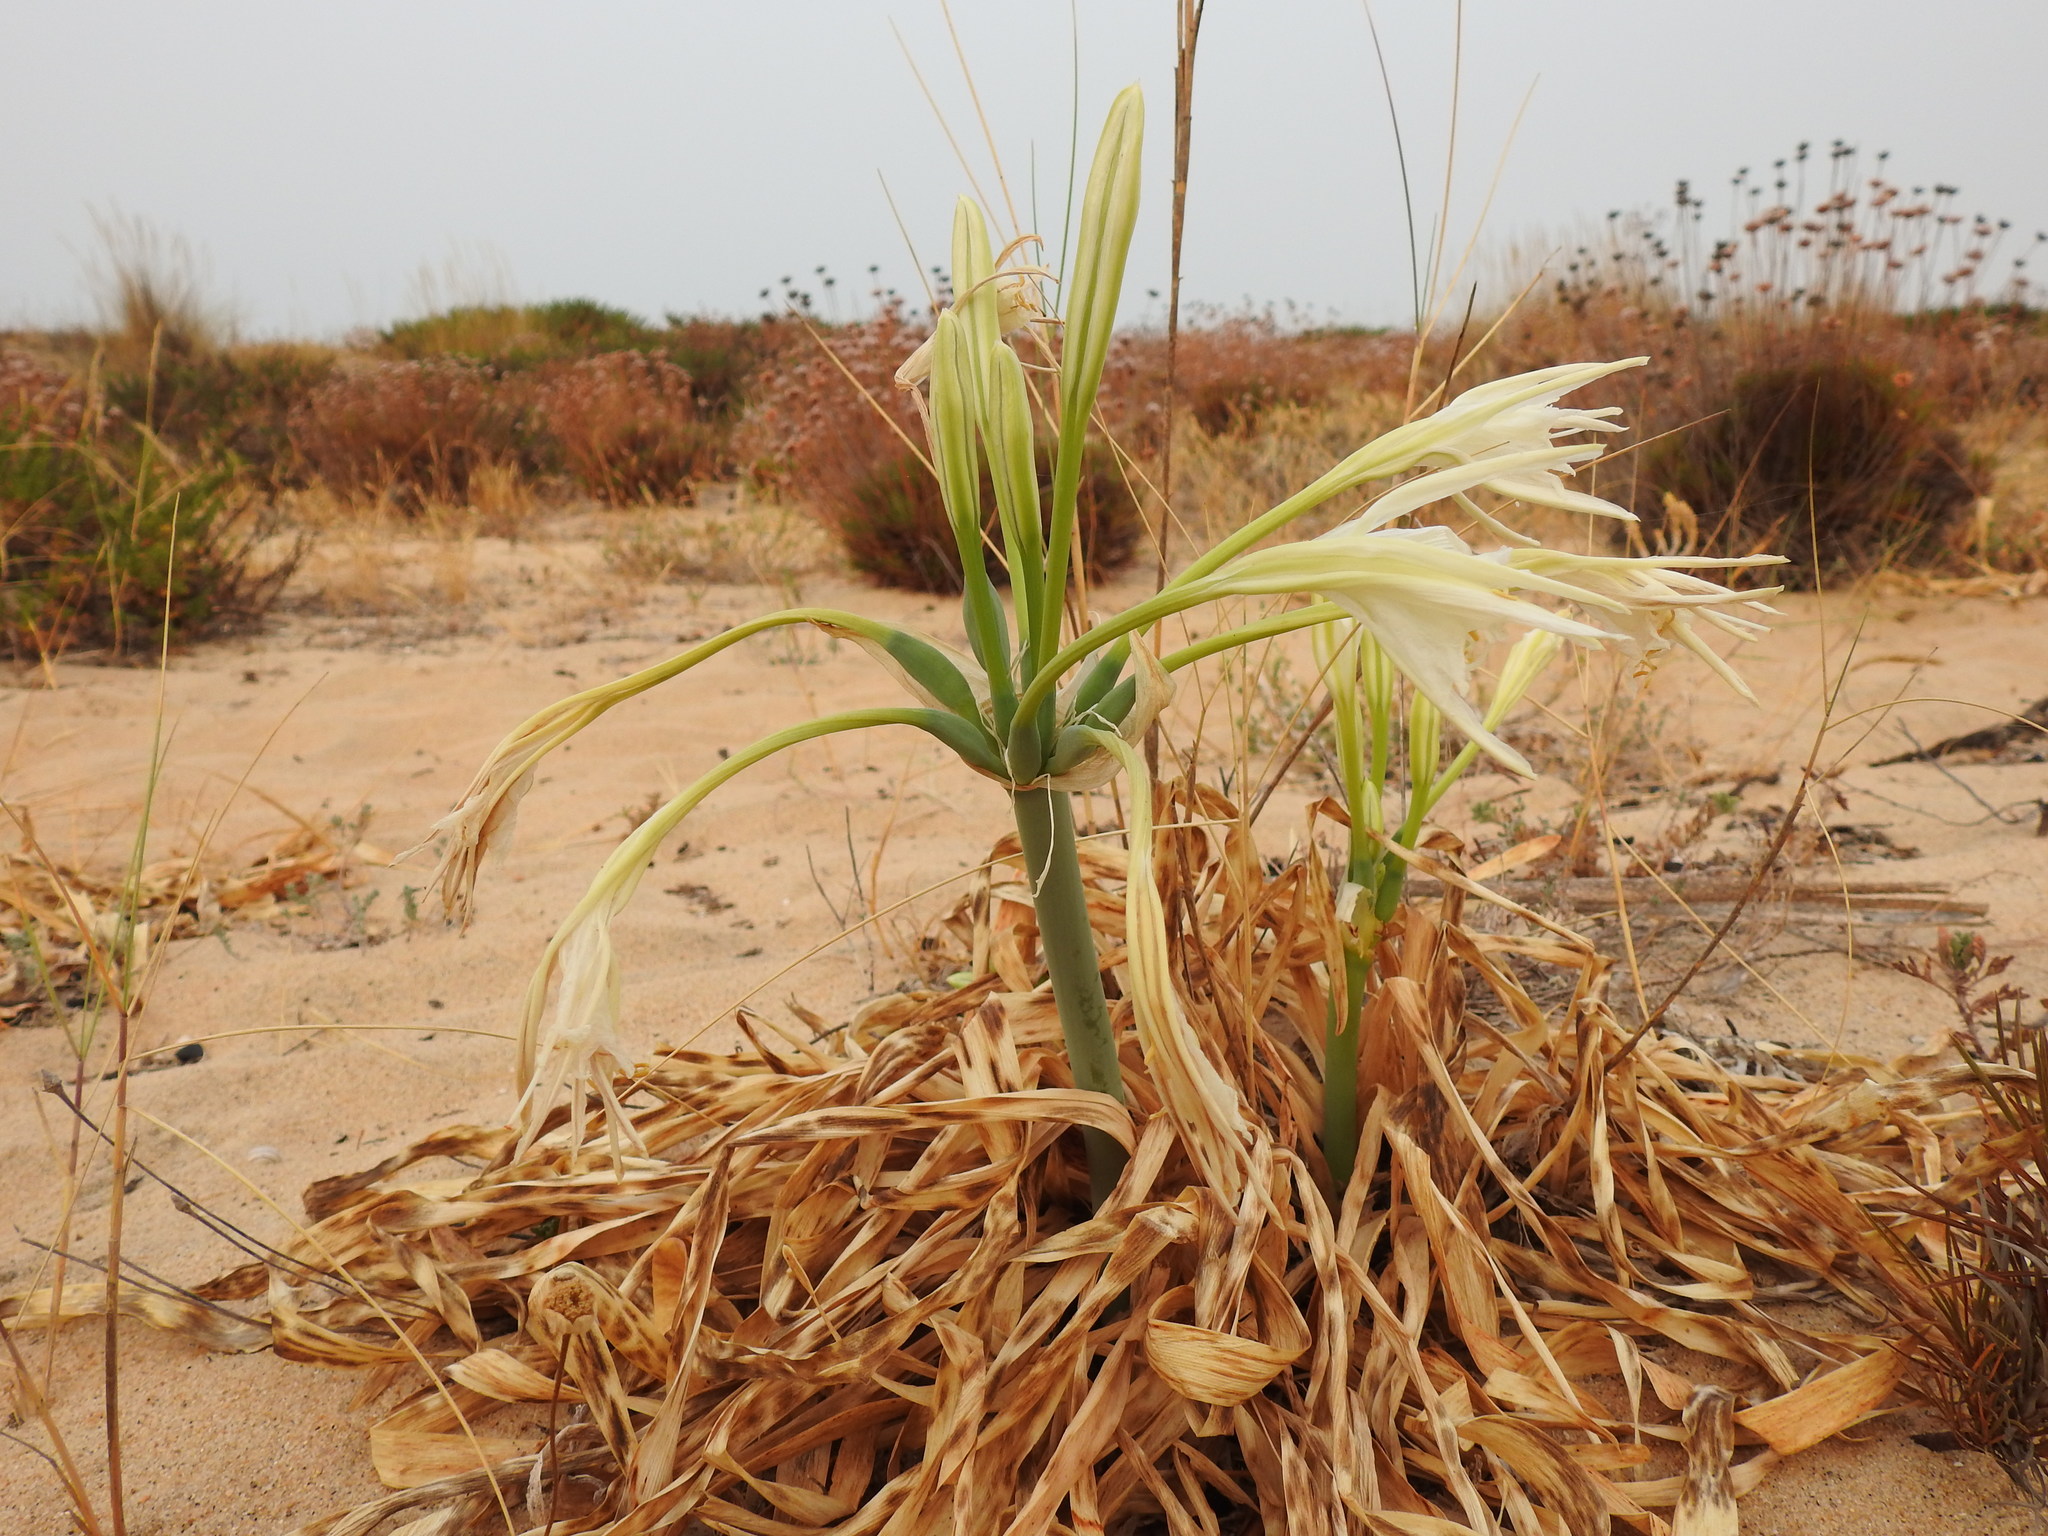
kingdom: Plantae
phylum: Tracheophyta
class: Liliopsida
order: Asparagales
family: Amaryllidaceae
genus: Pancratium
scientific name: Pancratium maritimum
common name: Sea-daffodil
